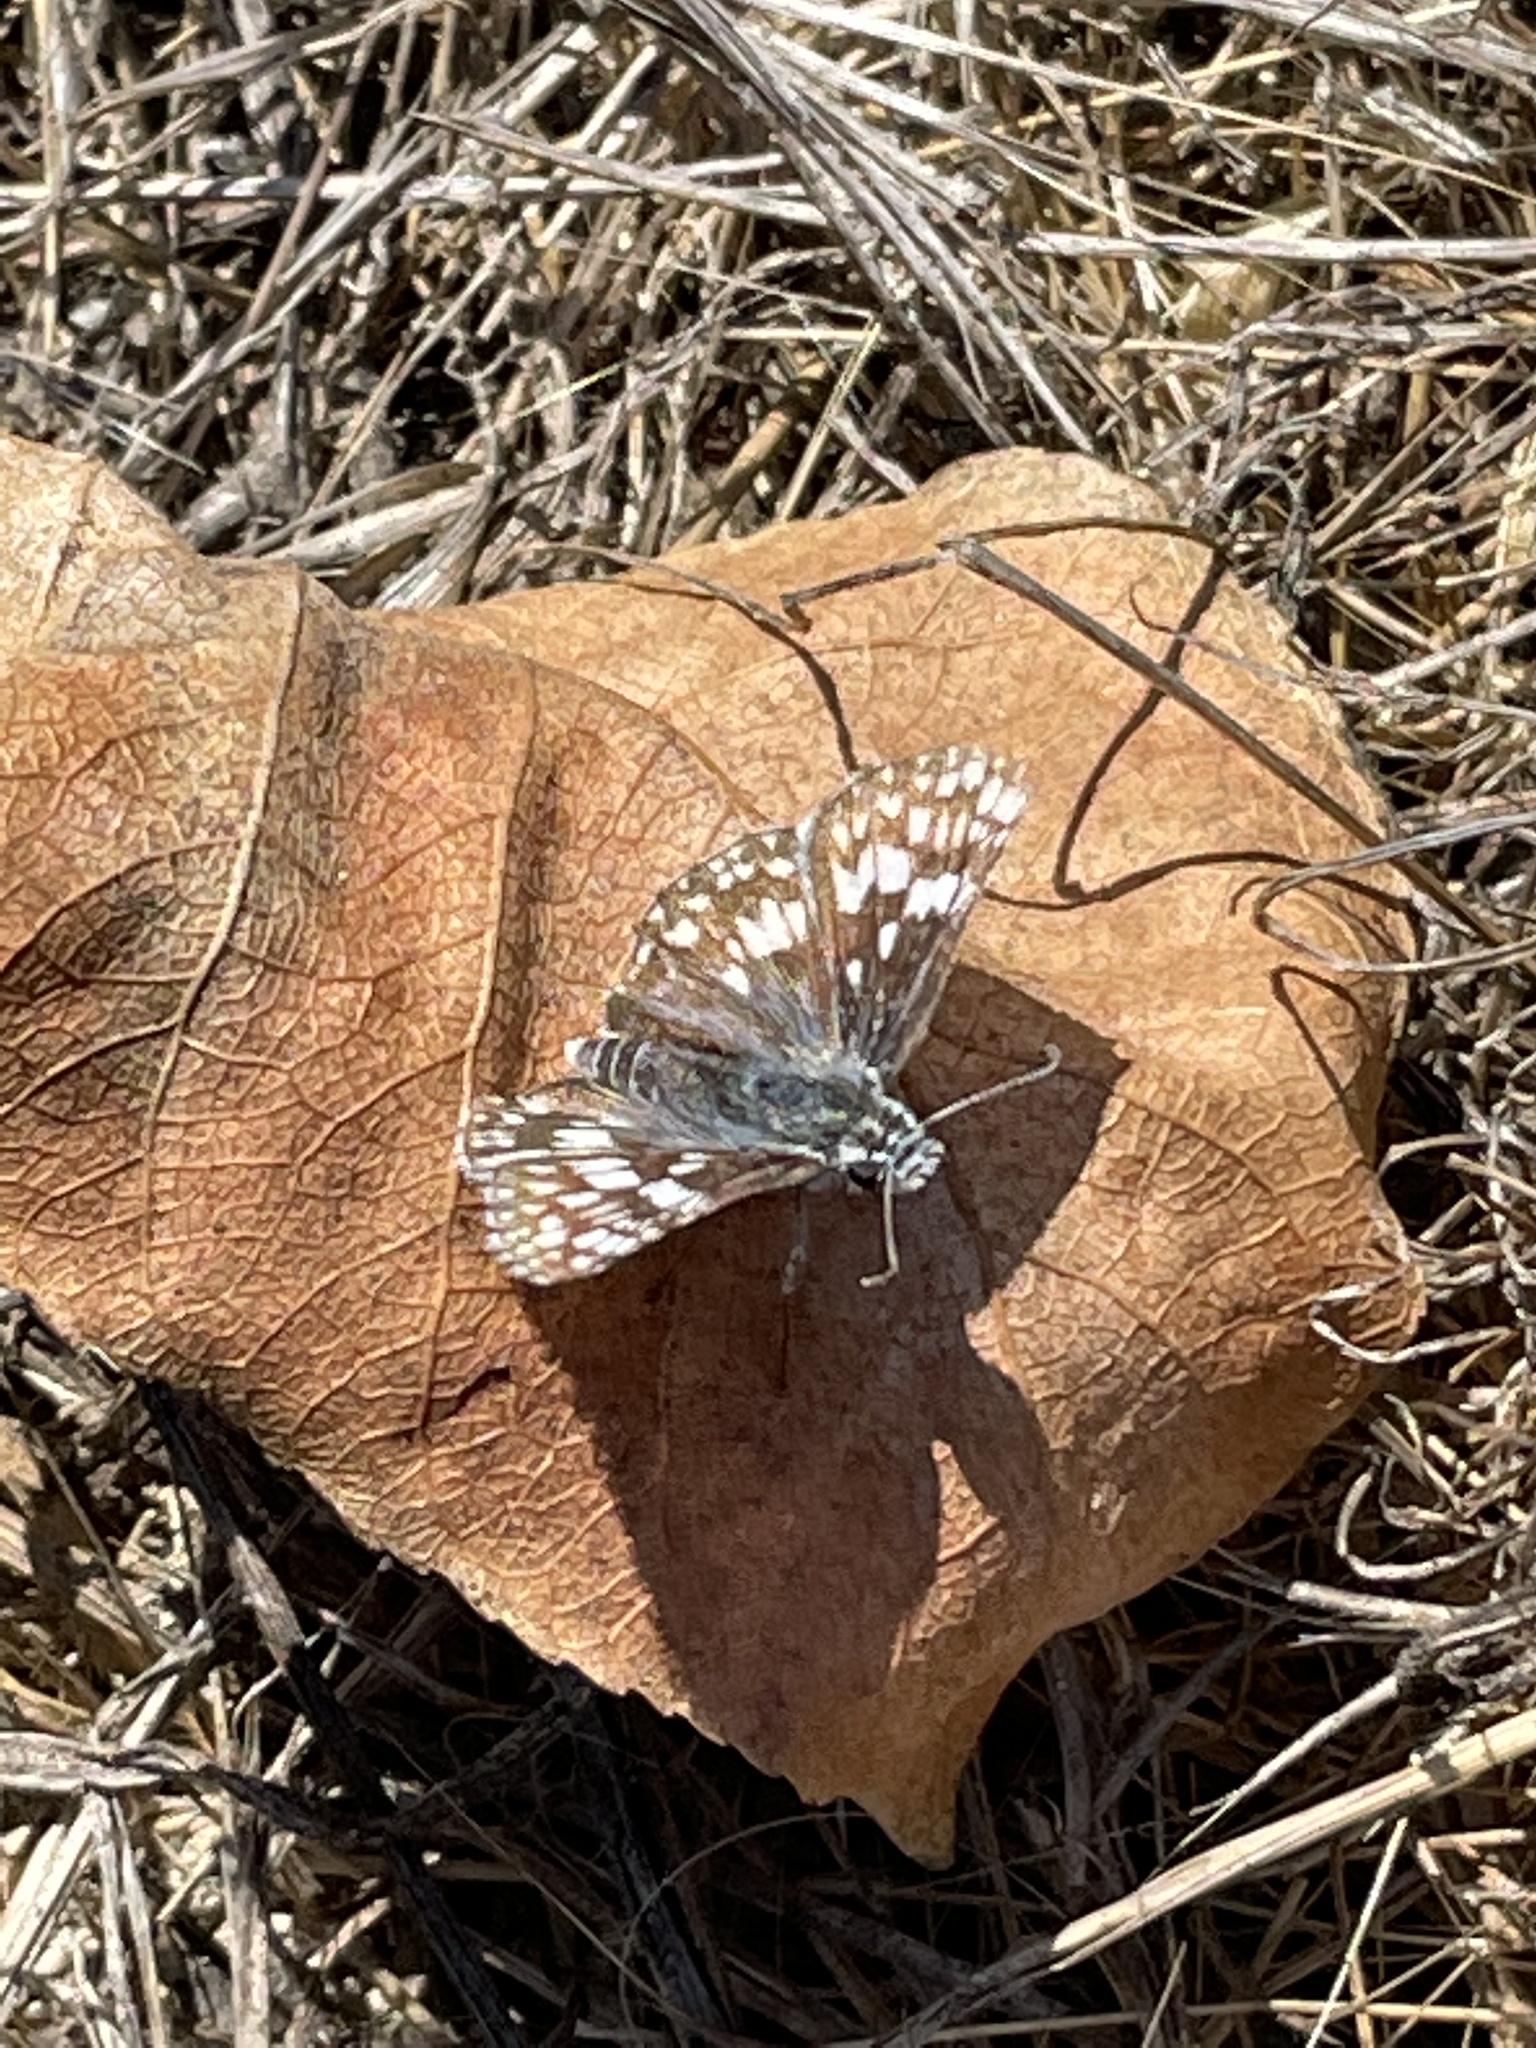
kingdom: Animalia
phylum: Arthropoda
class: Insecta
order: Lepidoptera
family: Hesperiidae
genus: Burnsius
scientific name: Burnsius communis
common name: Common checkered-skipper
